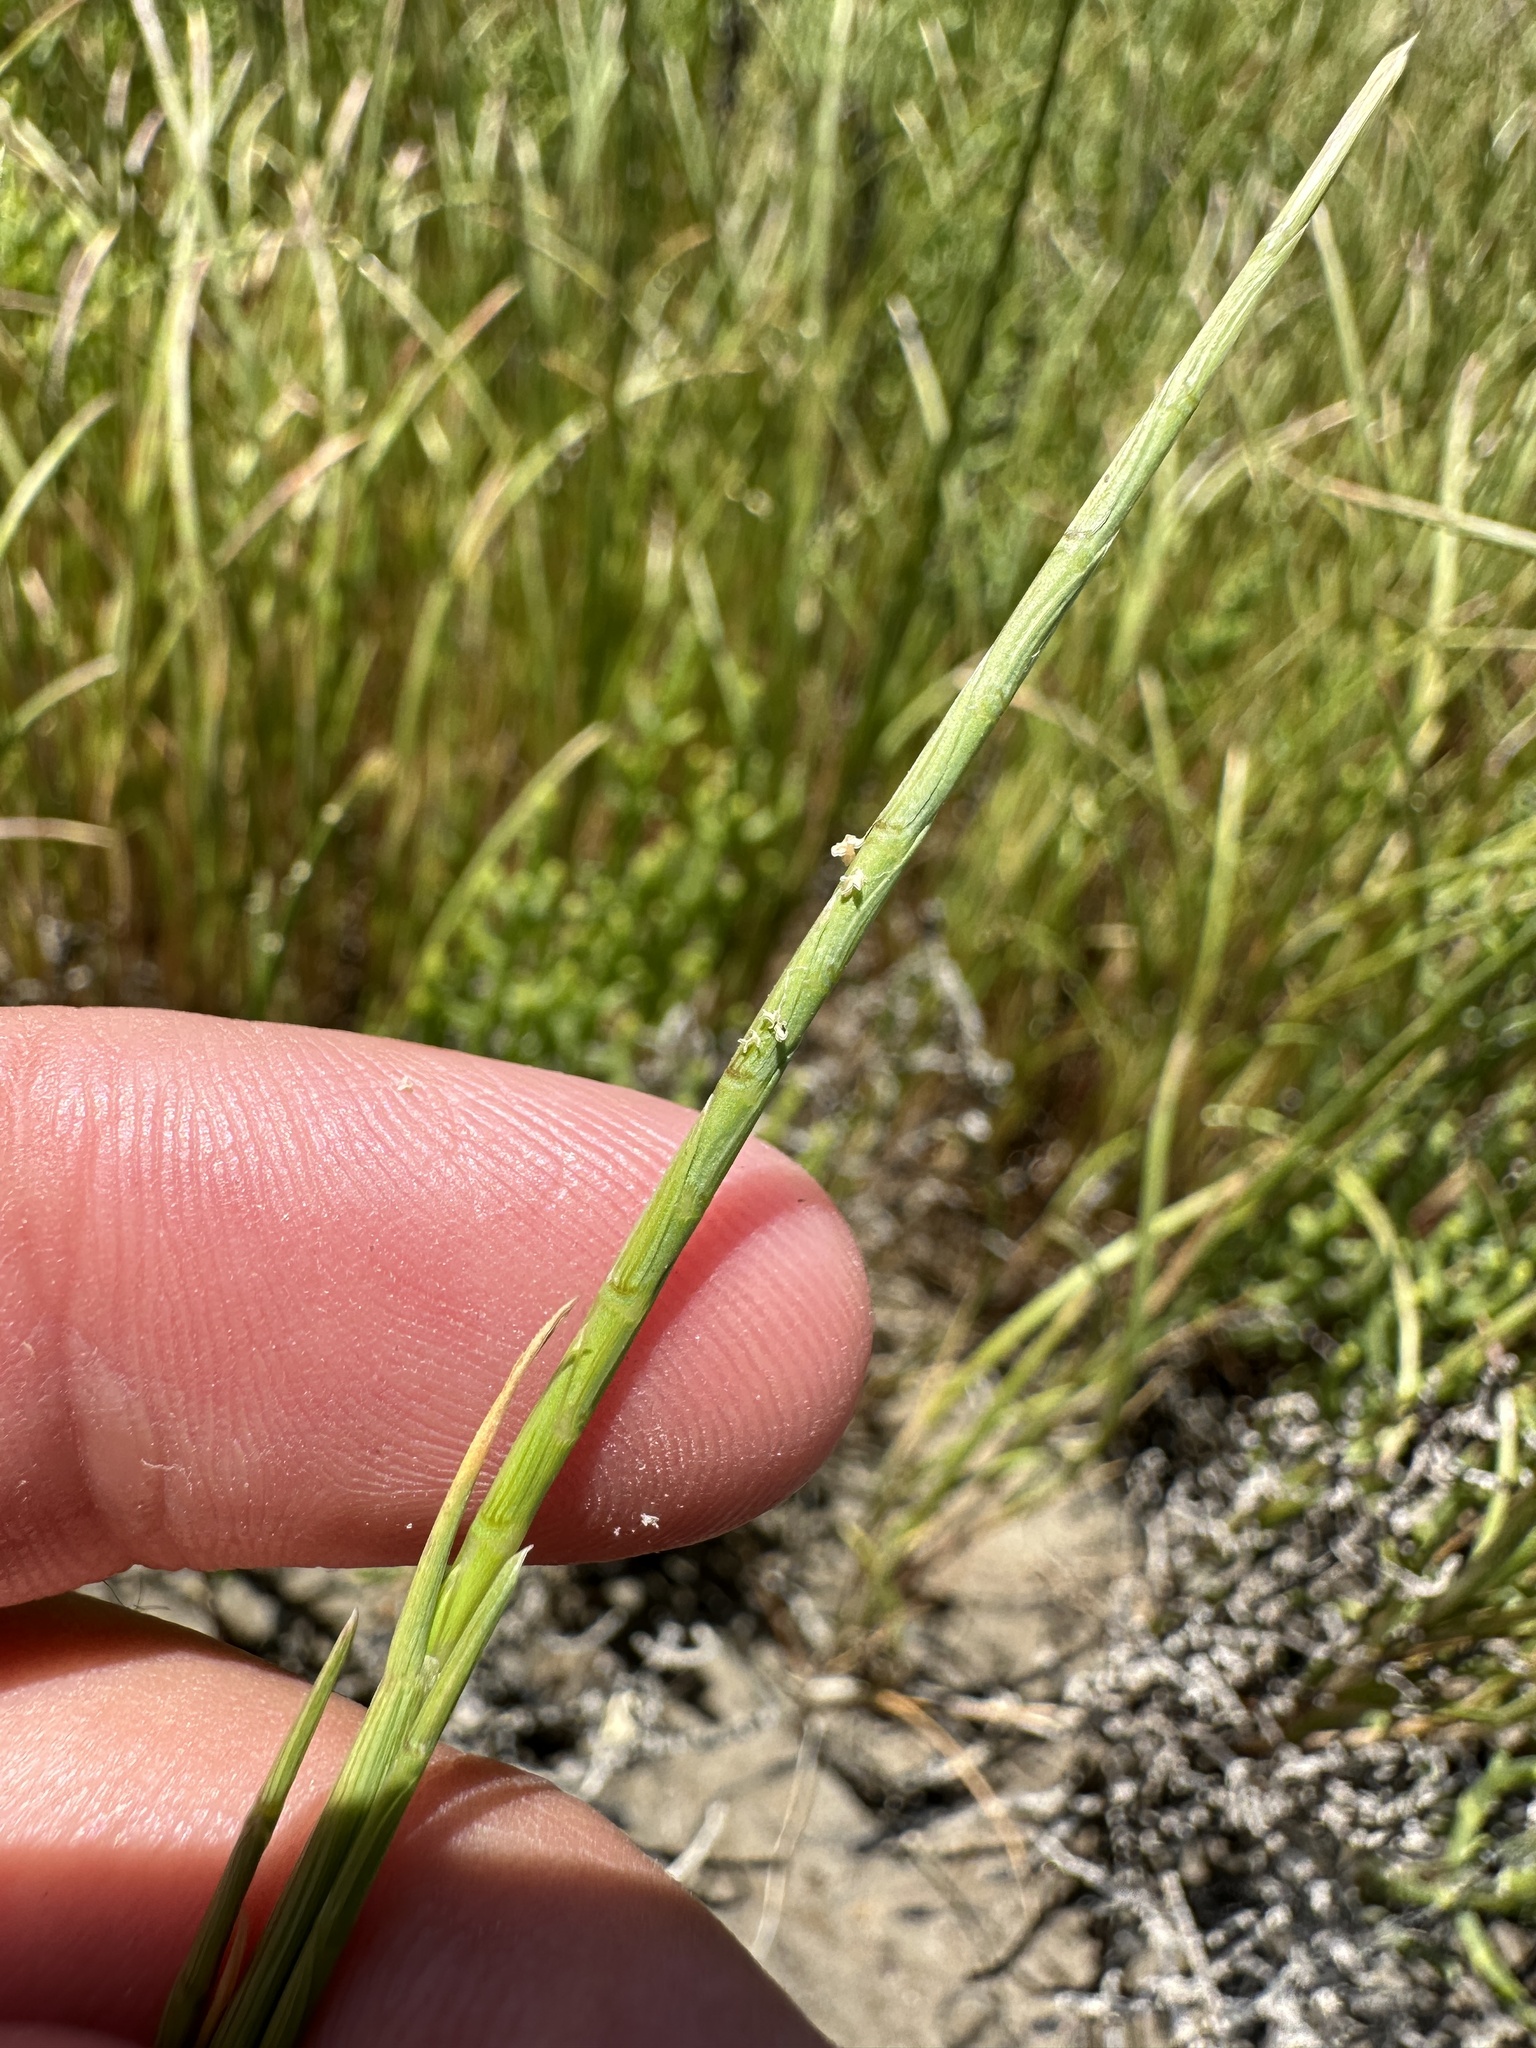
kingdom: Plantae
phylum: Tracheophyta
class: Liliopsida
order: Poales
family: Poaceae
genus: Parapholis
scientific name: Parapholis incurva
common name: Curved sicklegrass
